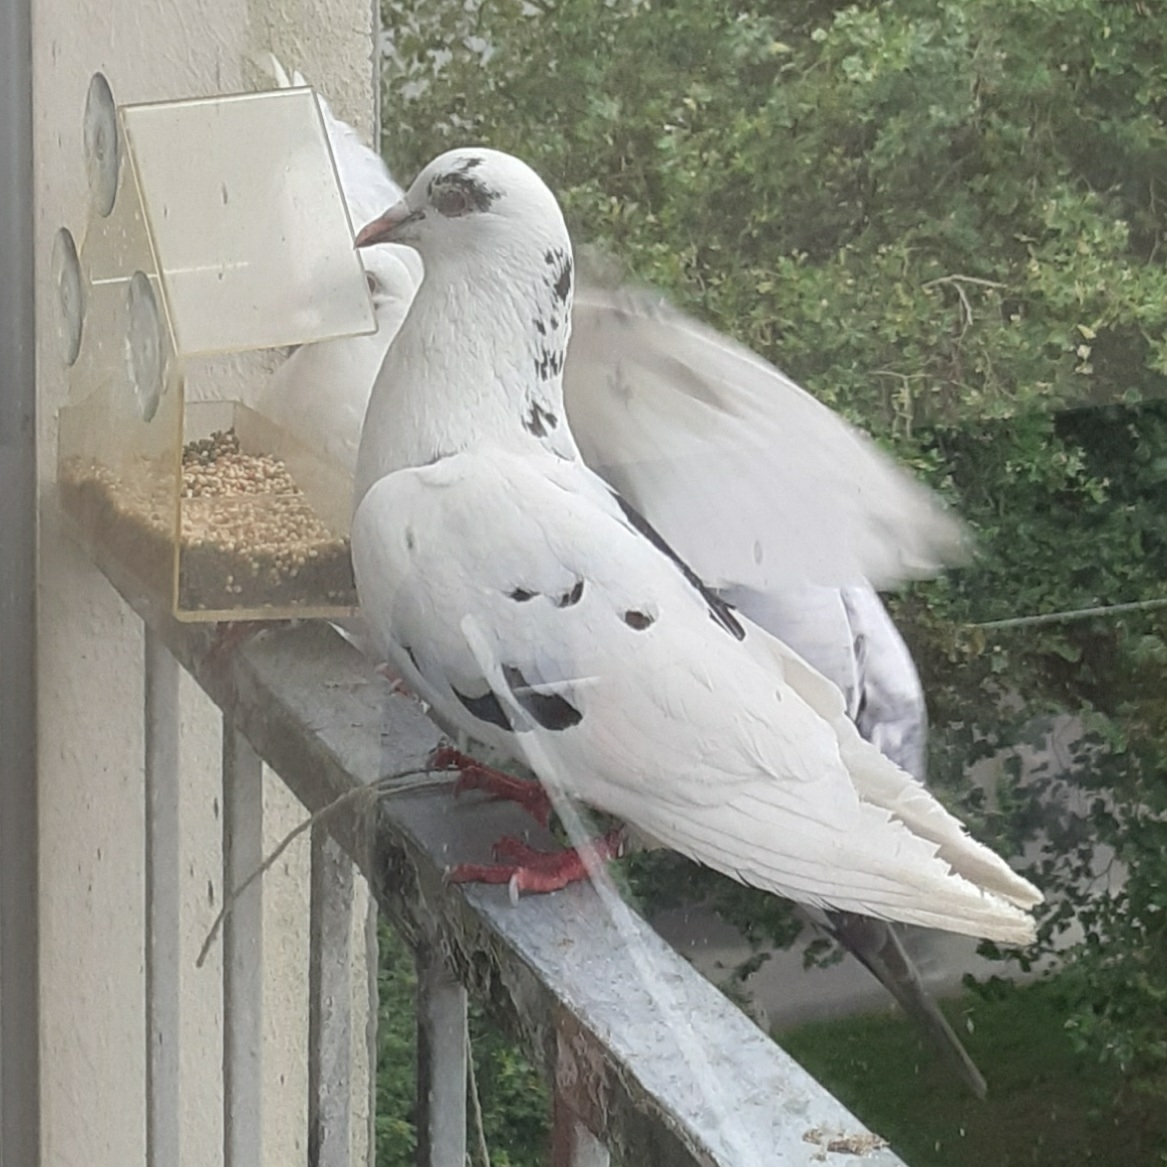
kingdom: Animalia
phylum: Chordata
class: Aves
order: Columbiformes
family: Columbidae
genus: Columba
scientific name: Columba livia
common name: Rock pigeon
